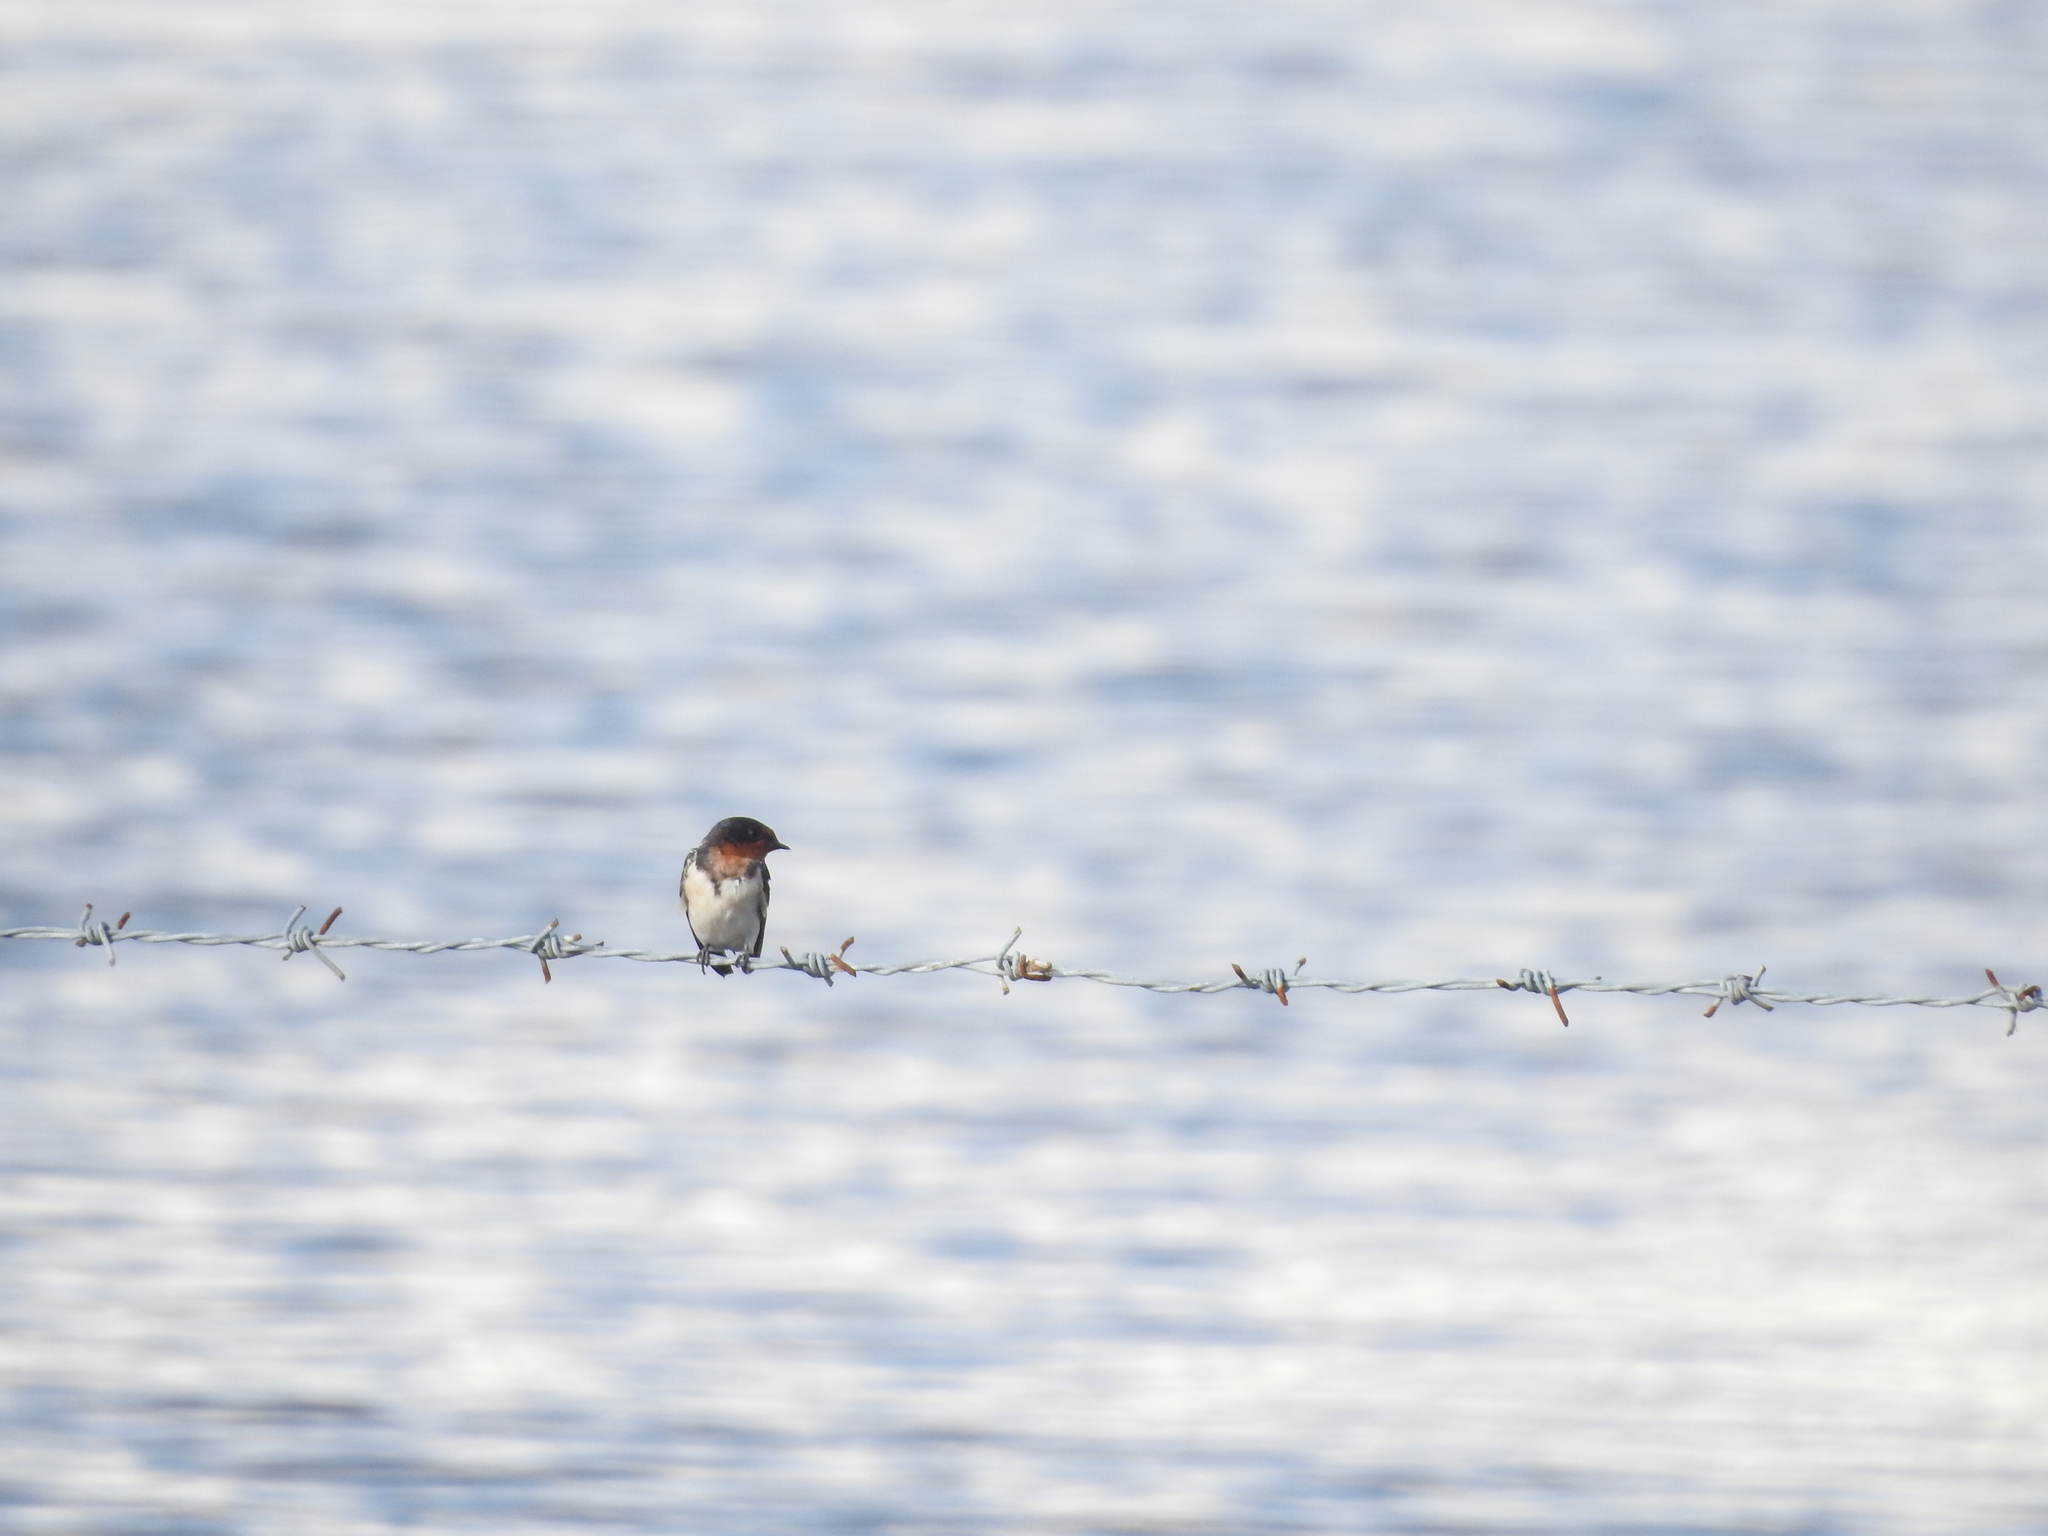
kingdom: Animalia
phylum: Chordata
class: Aves
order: Passeriformes
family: Hirundinidae
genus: Hirundo
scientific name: Hirundo rustica
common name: Barn swallow
